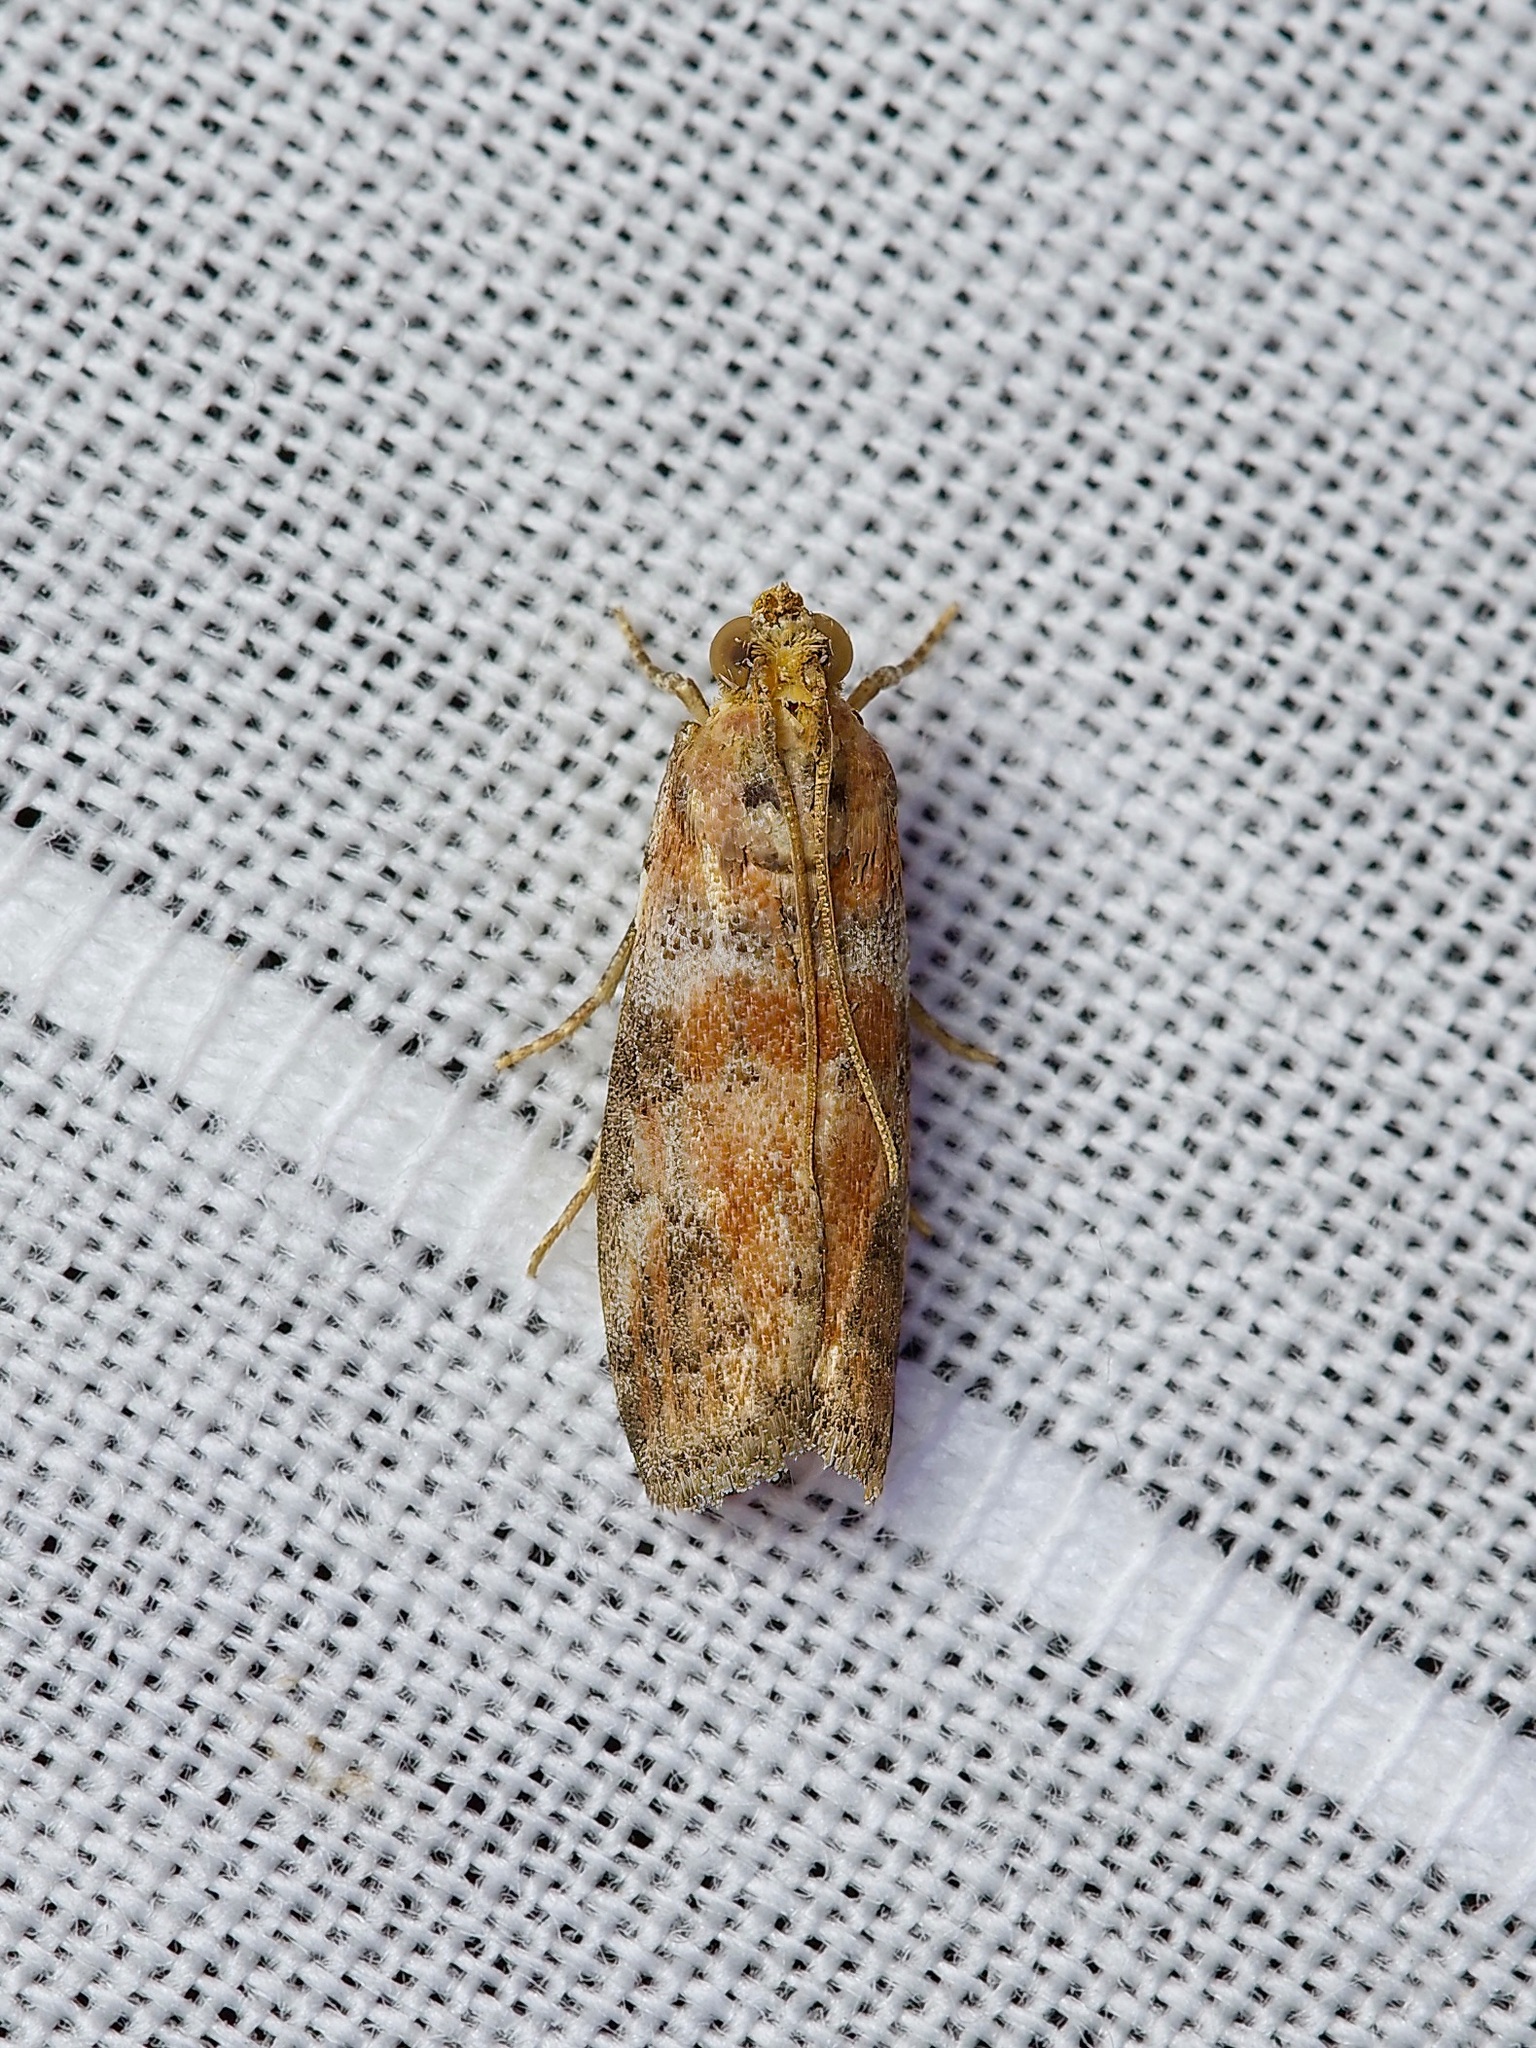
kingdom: Animalia
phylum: Arthropoda
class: Insecta
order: Lepidoptera
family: Pyralidae
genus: Sciota
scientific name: Sciota
